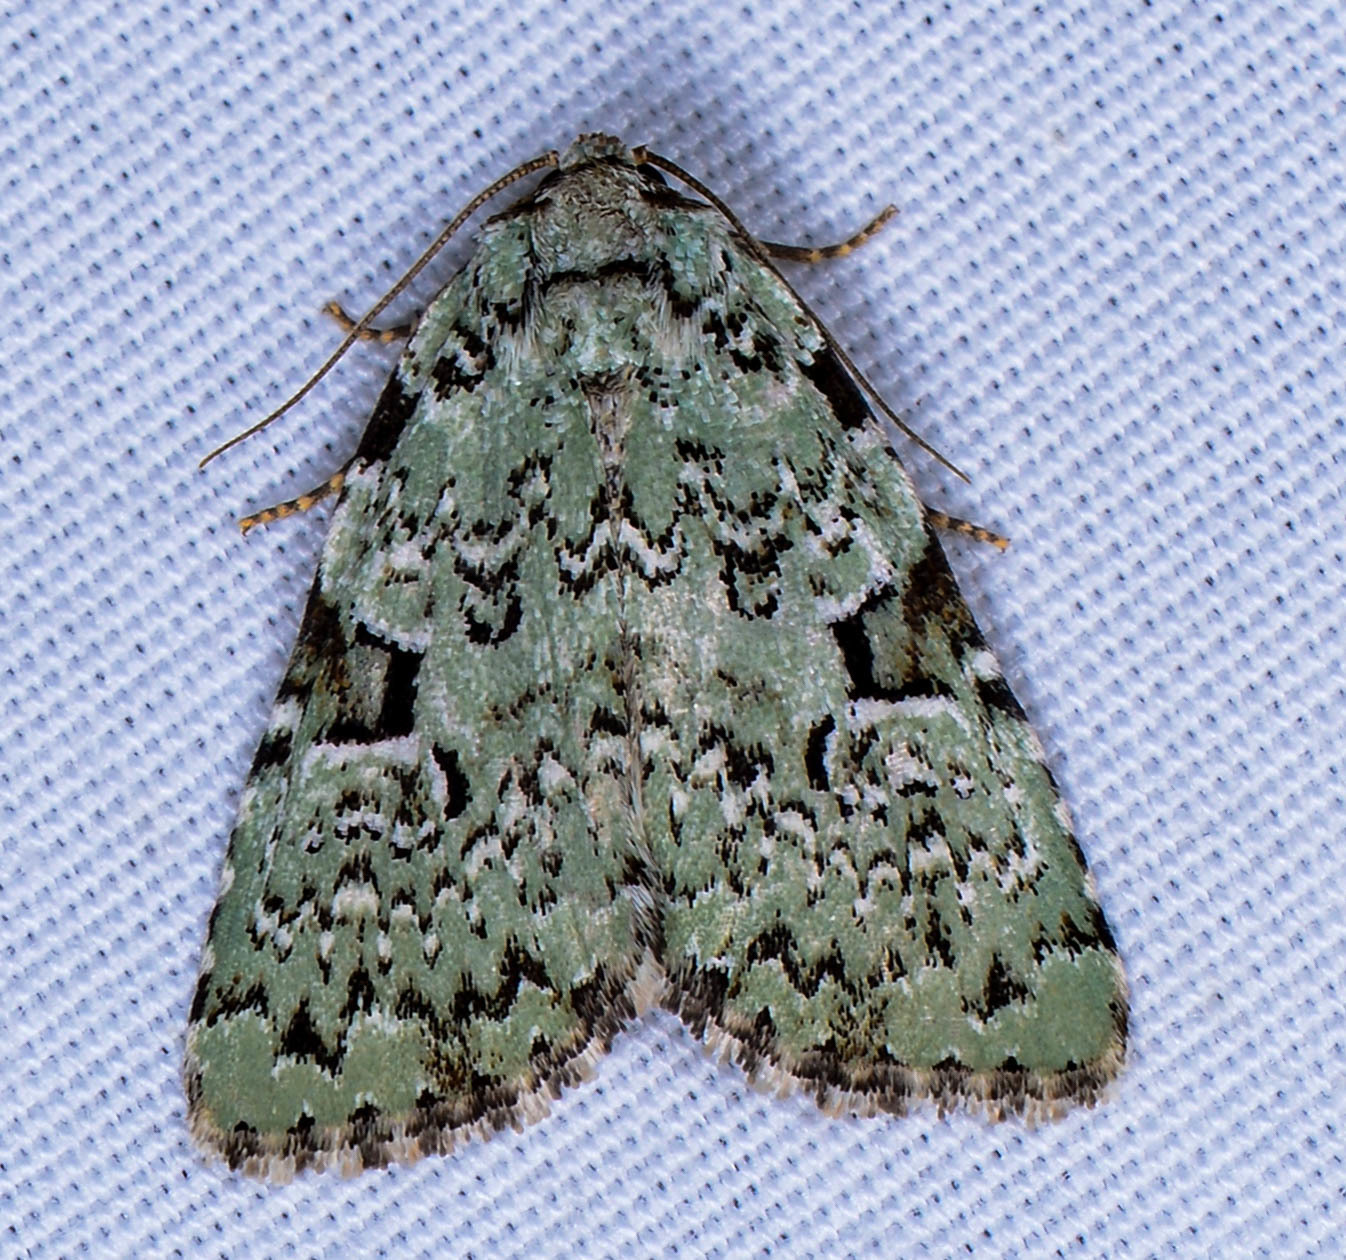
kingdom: Animalia
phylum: Arthropoda
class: Insecta
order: Lepidoptera
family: Noctuidae
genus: Leuconycta
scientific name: Leuconycta diphteroides
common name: Green leuconycta moth
